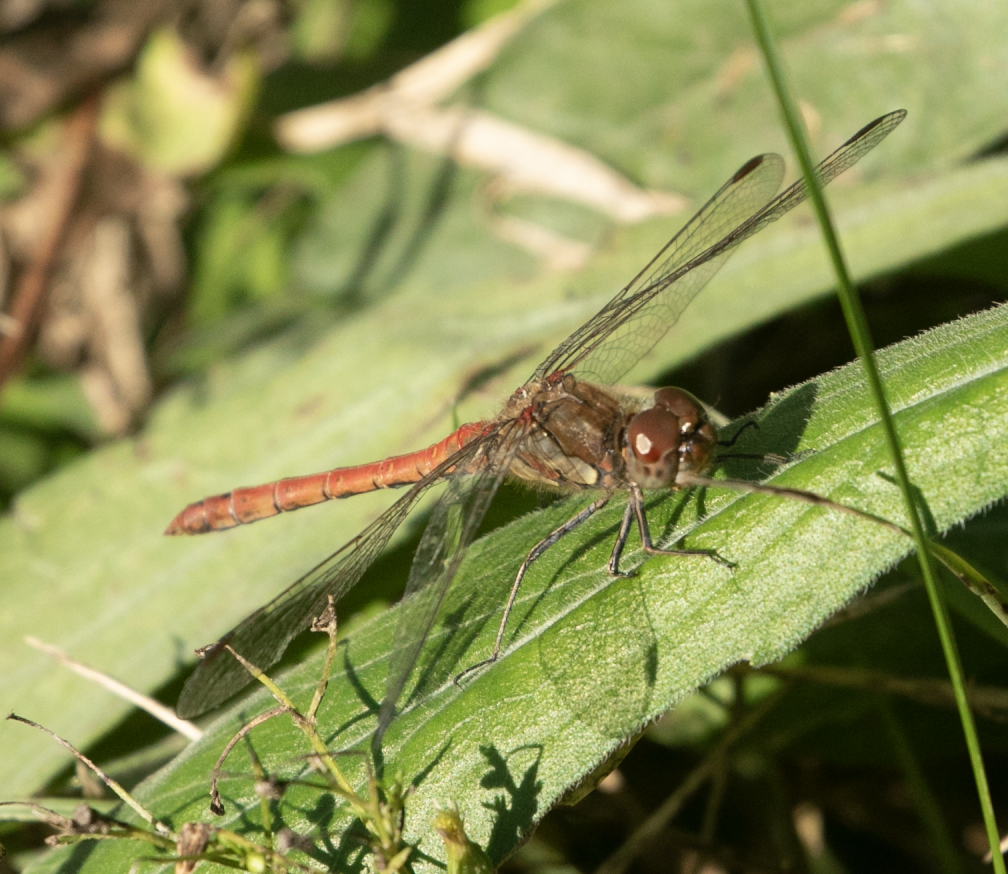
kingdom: Animalia
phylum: Arthropoda
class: Insecta
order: Odonata
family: Libellulidae
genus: Sympetrum
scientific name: Sympetrum striolatum
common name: Common darter
